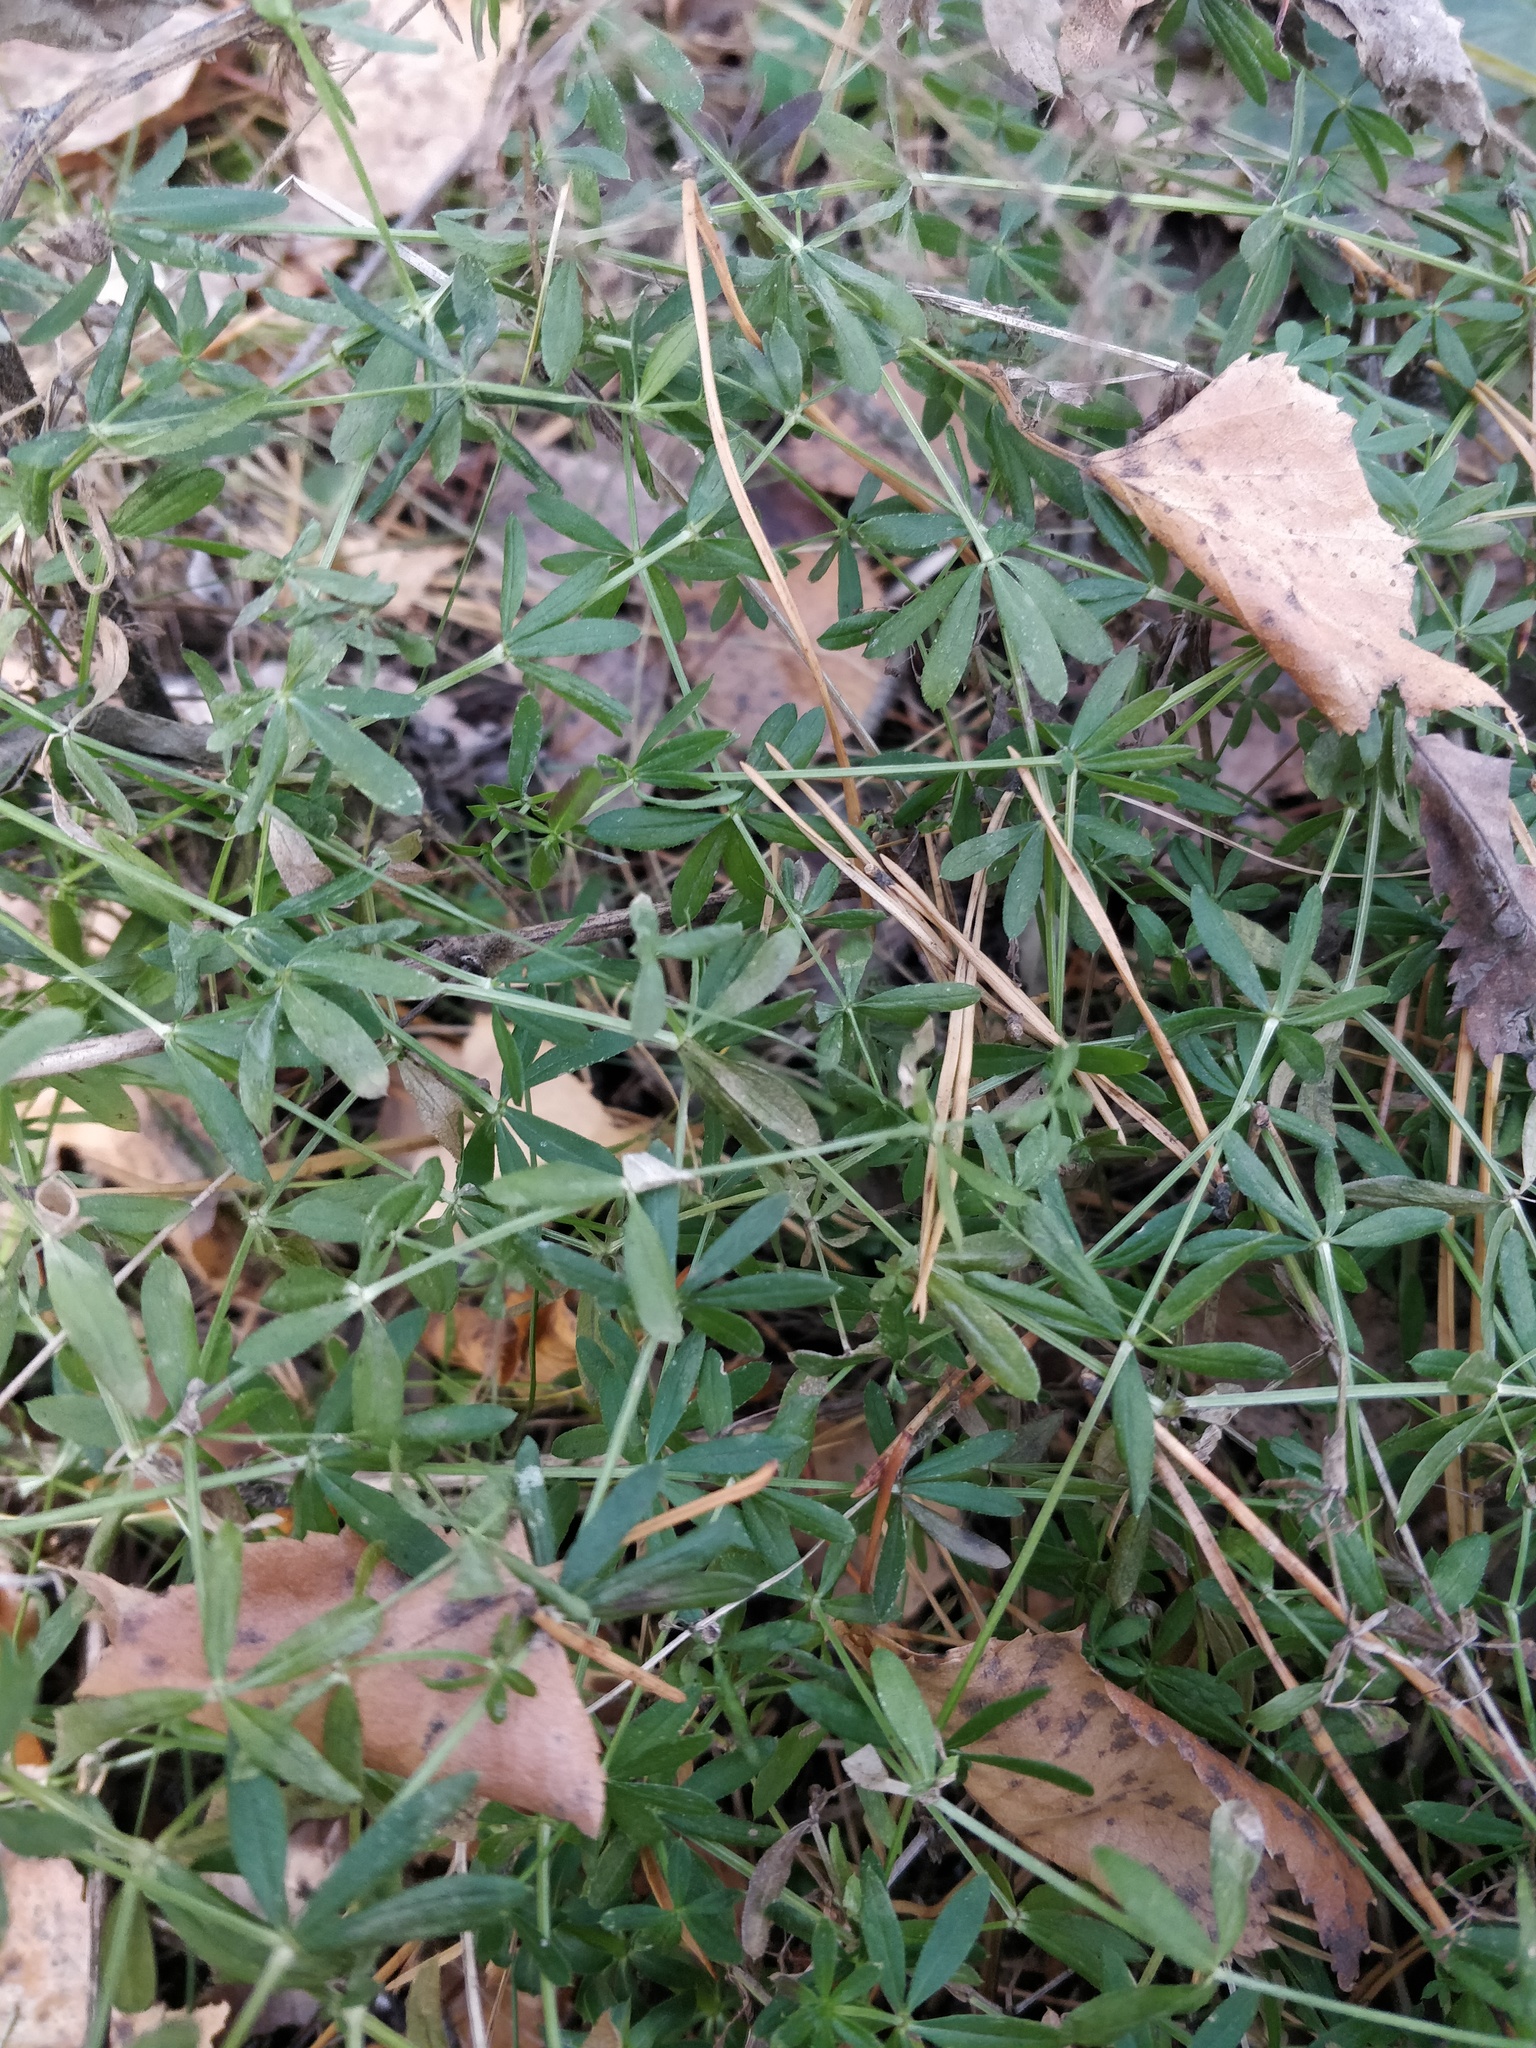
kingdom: Plantae
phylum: Tracheophyta
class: Magnoliopsida
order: Gentianales
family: Rubiaceae
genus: Galium
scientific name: Galium mollugo
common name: Hedge bedstraw
